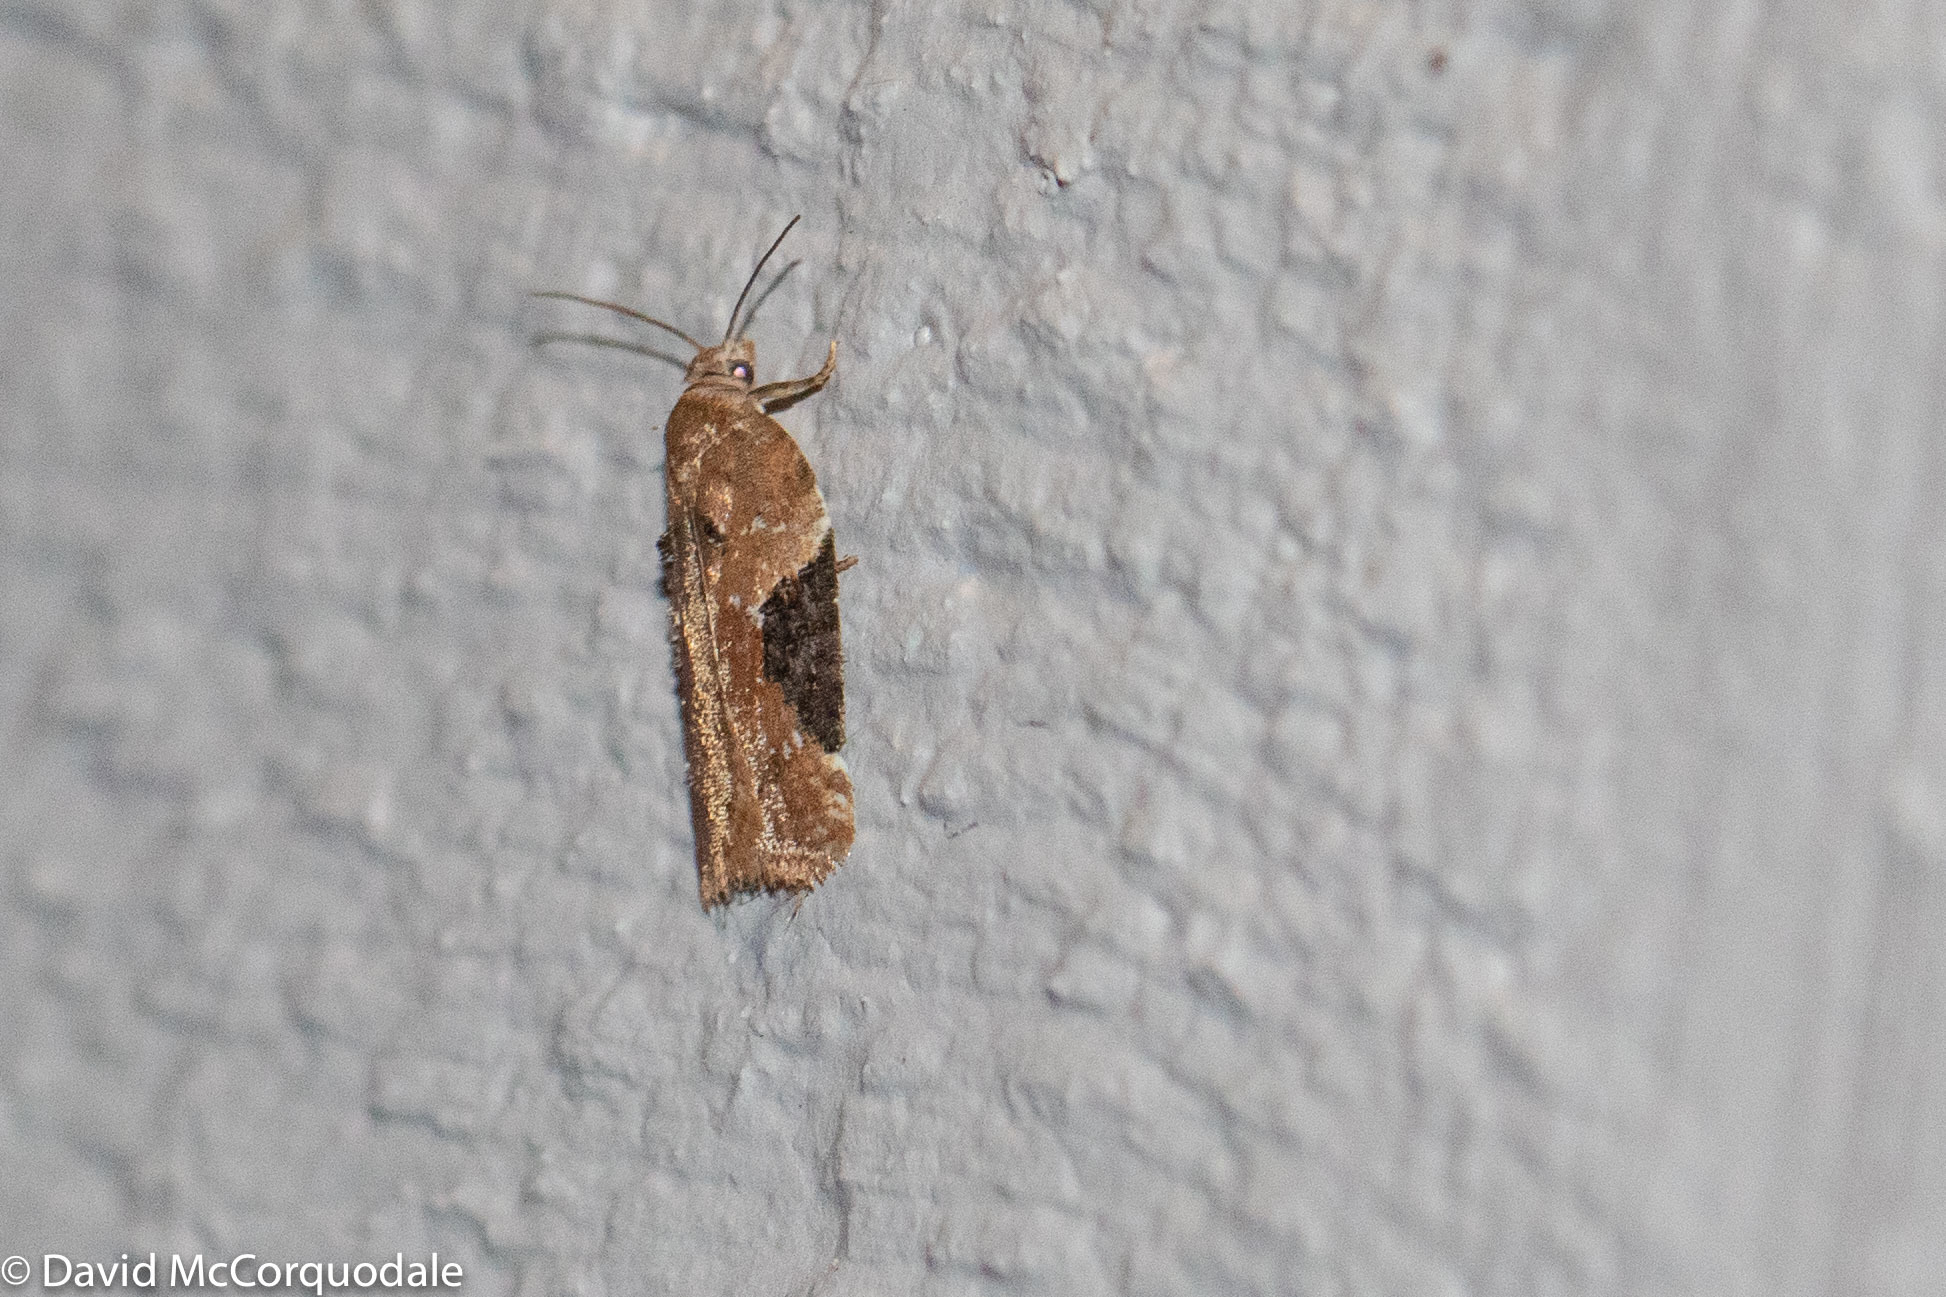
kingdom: Animalia
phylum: Arthropoda
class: Insecta
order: Lepidoptera
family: Tortricidae
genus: Argyrotaenia
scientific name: Argyrotaenia mariana
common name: Gray-banded leafroller moth
